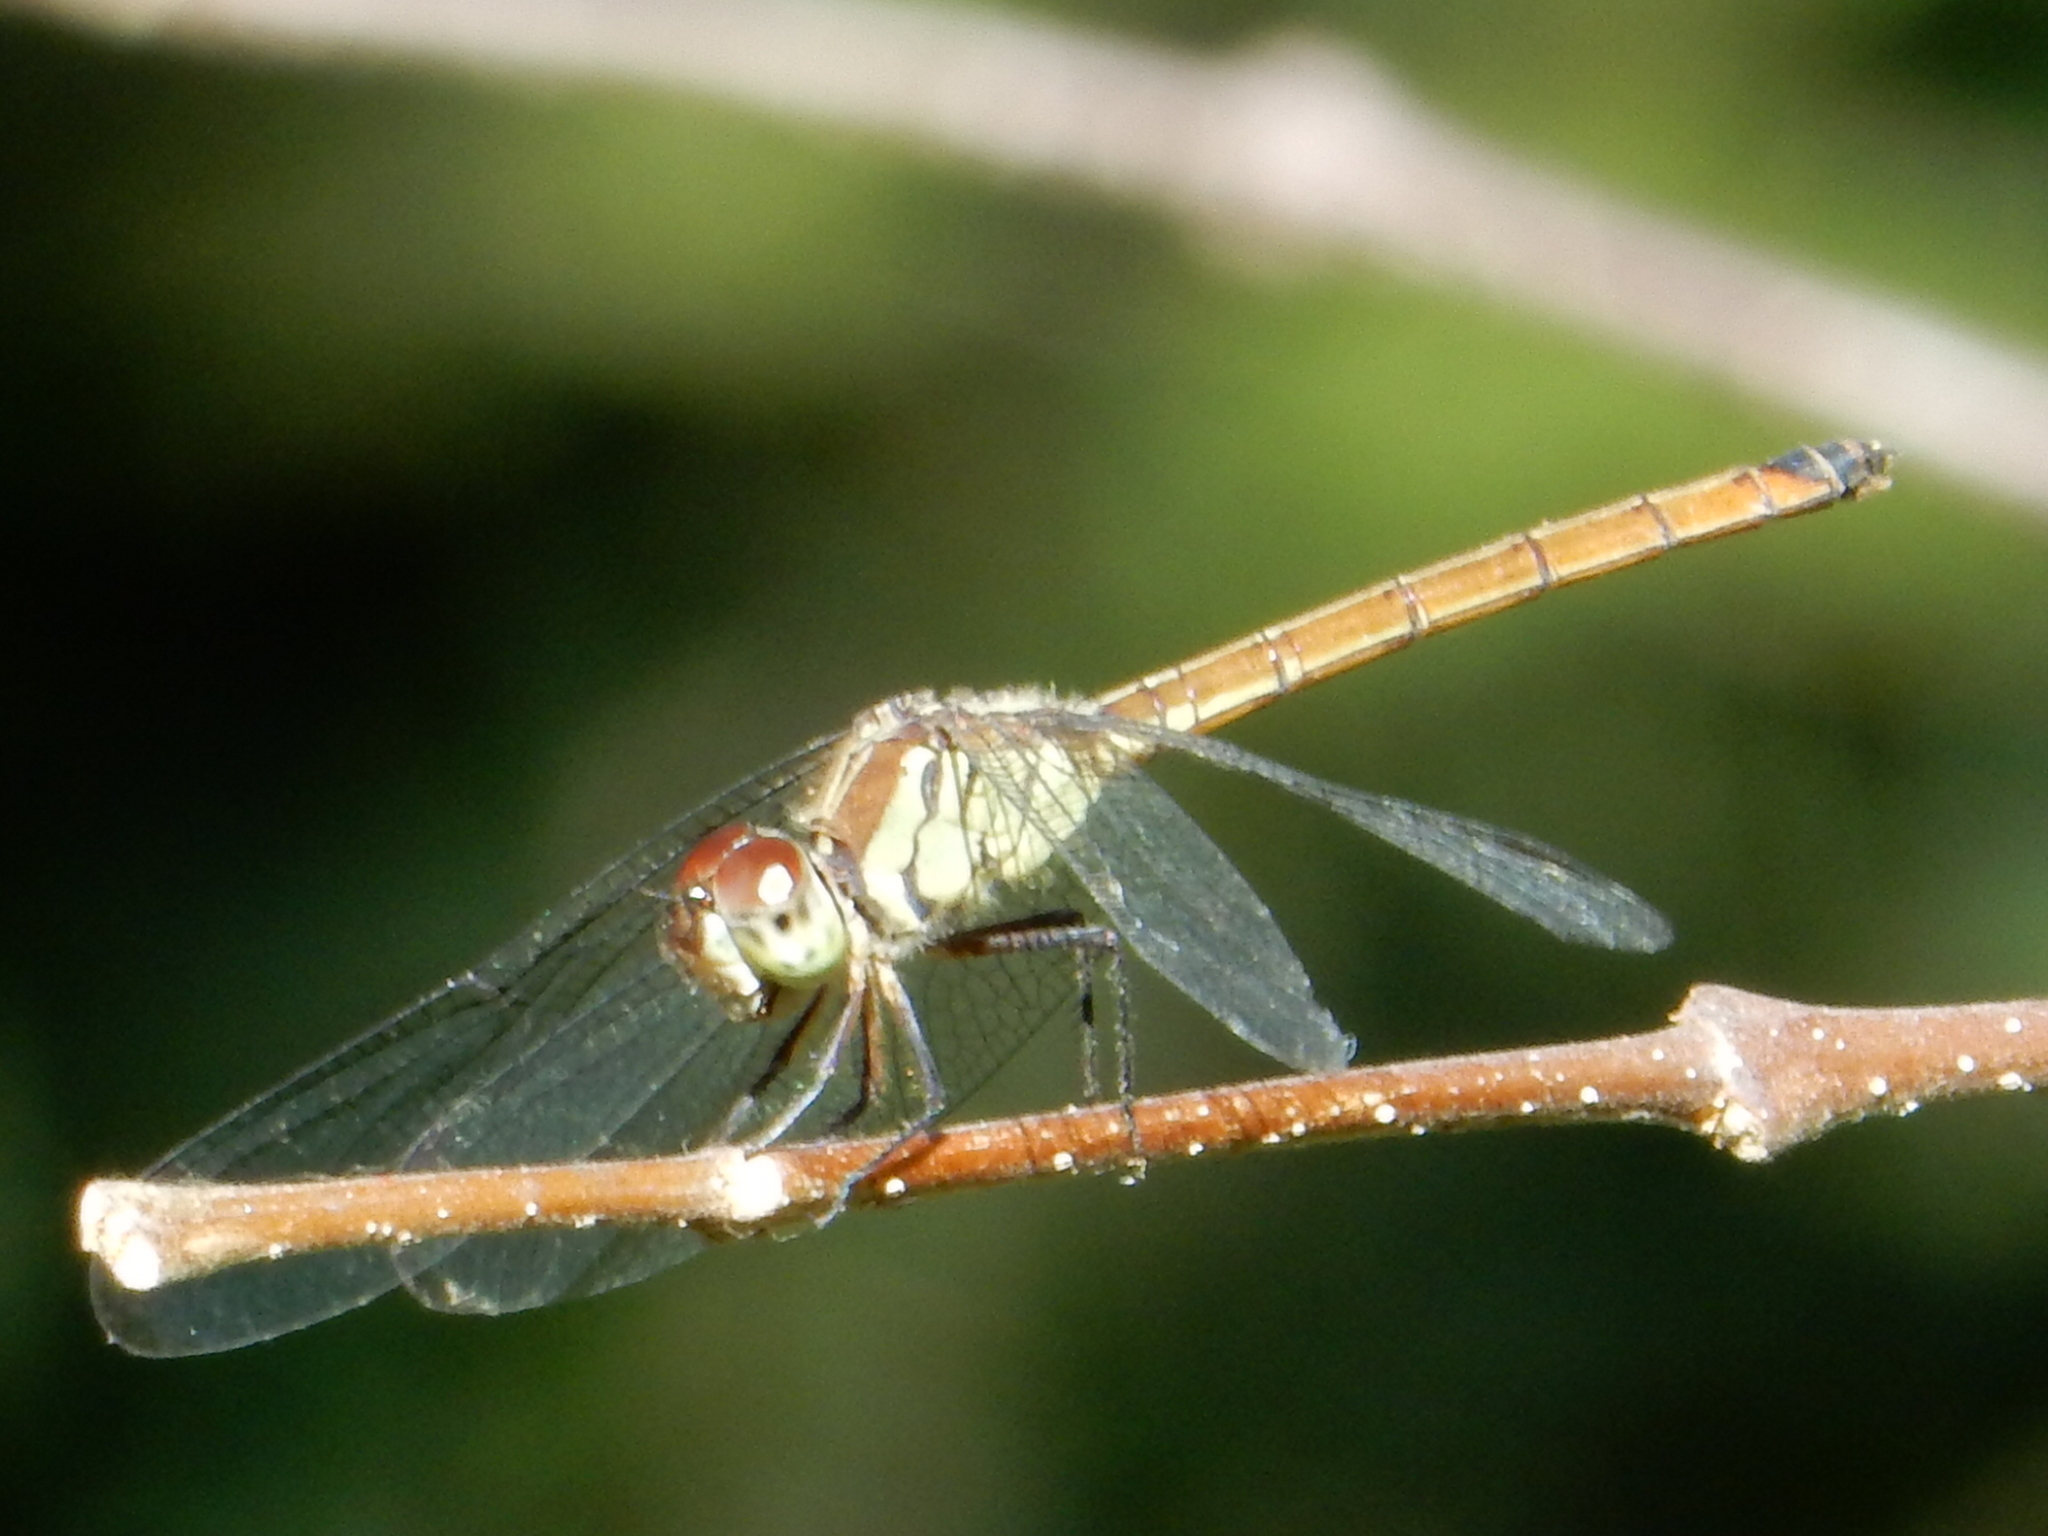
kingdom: Animalia
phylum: Arthropoda
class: Insecta
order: Odonata
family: Libellulidae
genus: Lathrecista
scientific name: Lathrecista asiatica
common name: Scarlet grenadier
